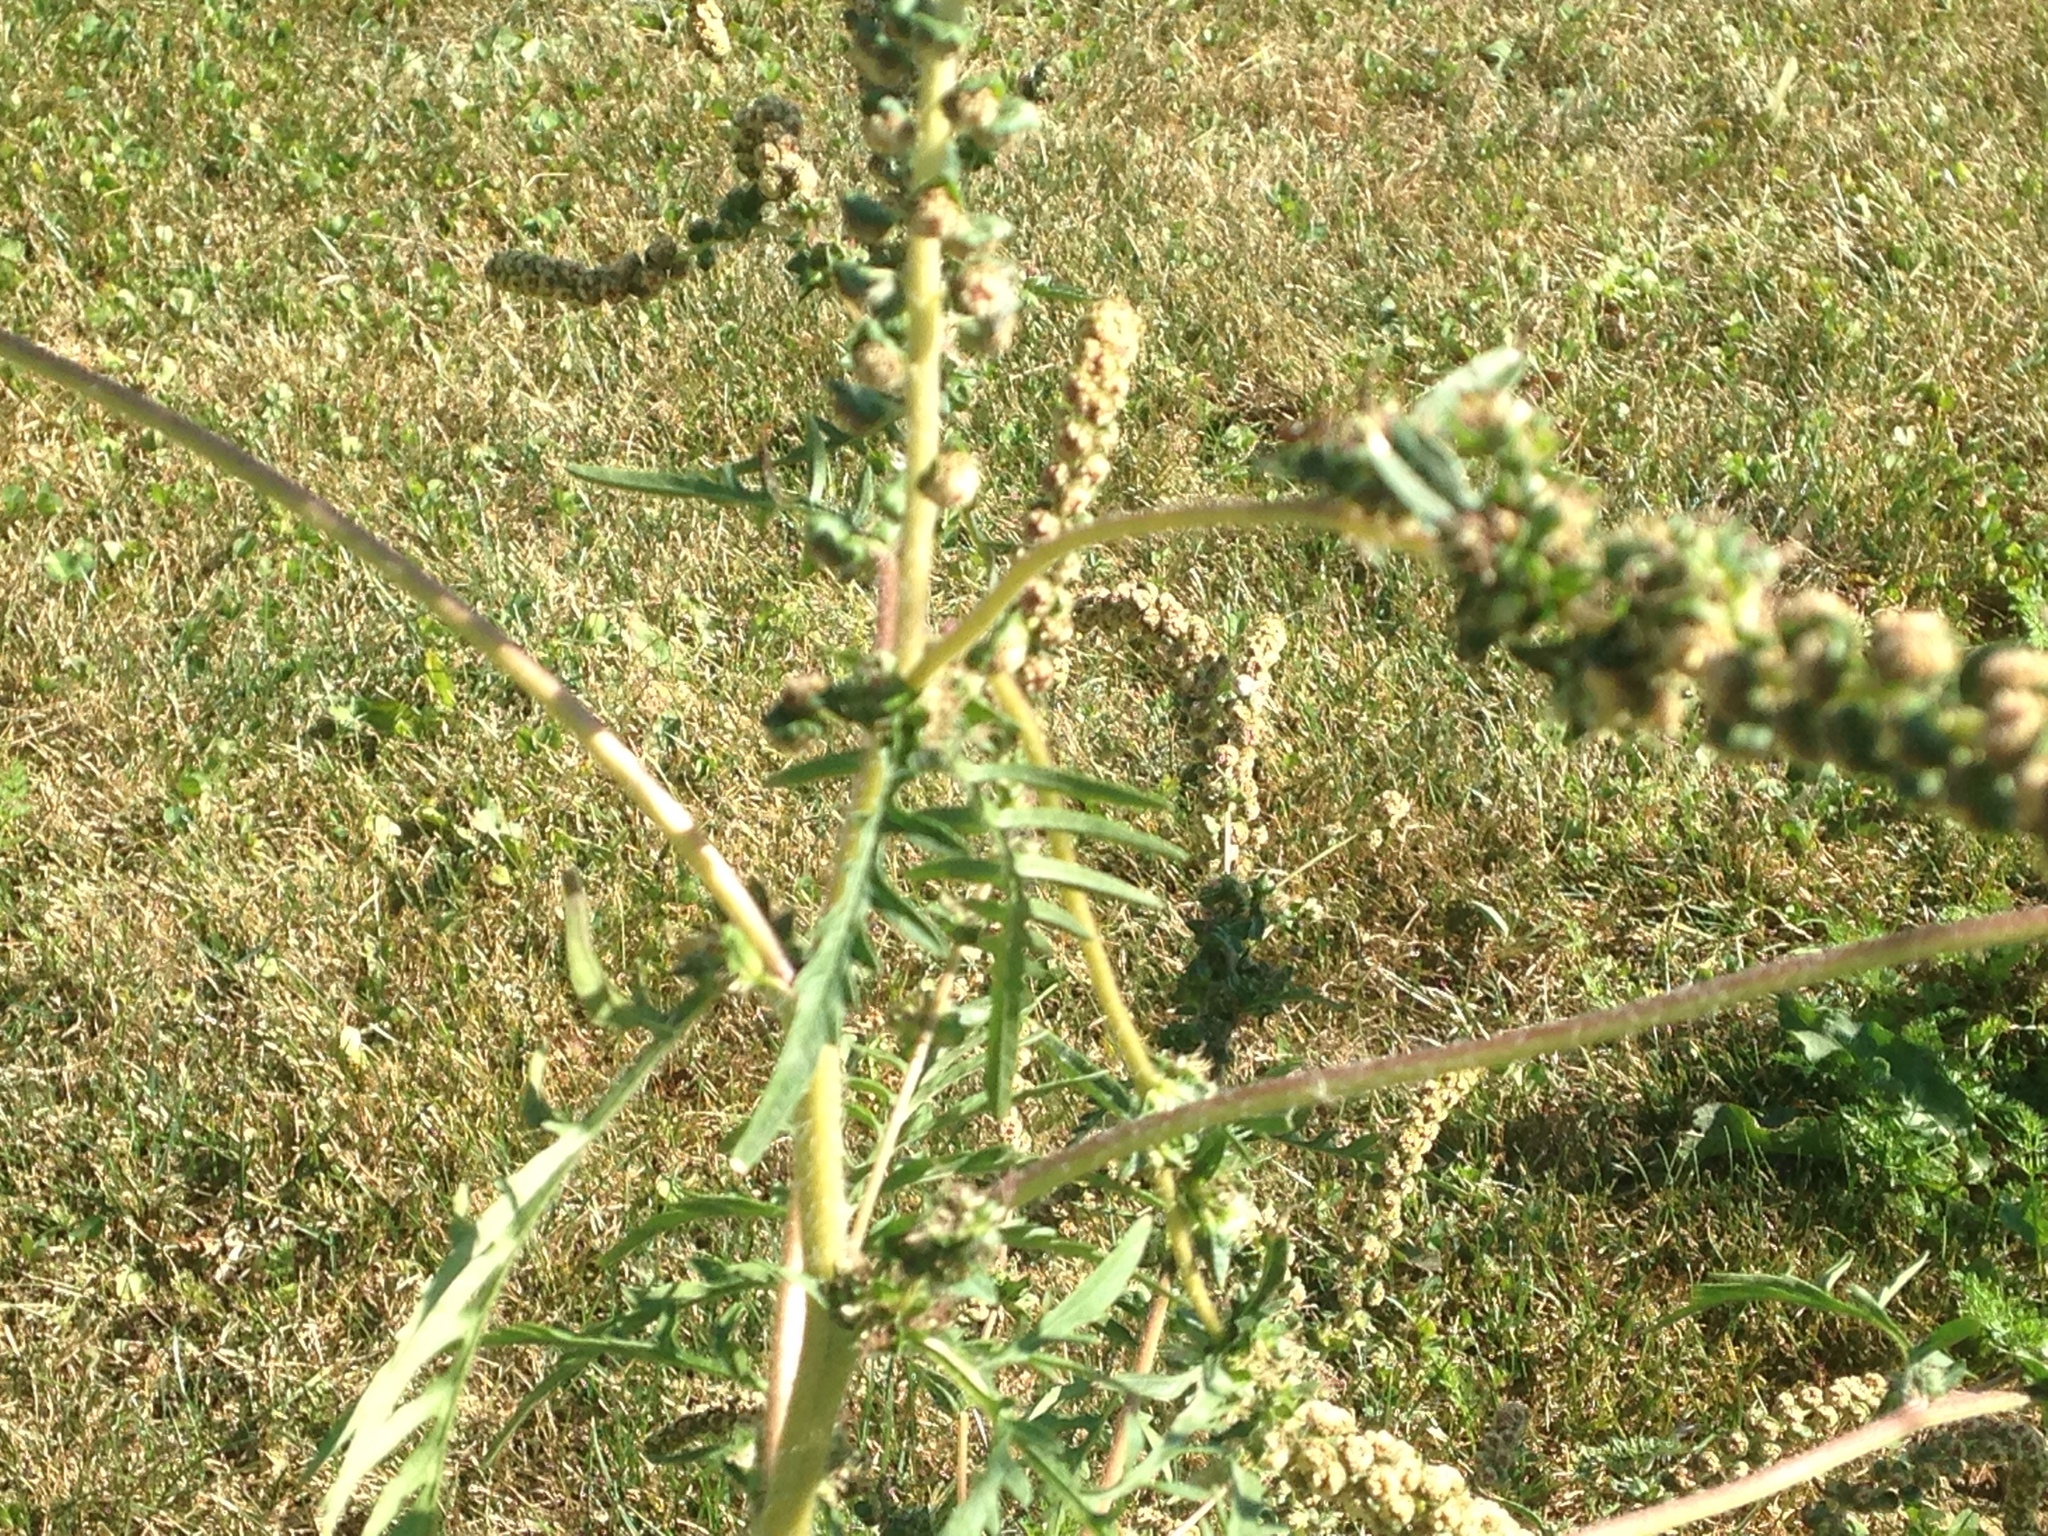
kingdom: Plantae
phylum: Tracheophyta
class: Magnoliopsida
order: Asterales
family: Asteraceae
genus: Ambrosia
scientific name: Ambrosia artemisiifolia
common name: Annual ragweed
